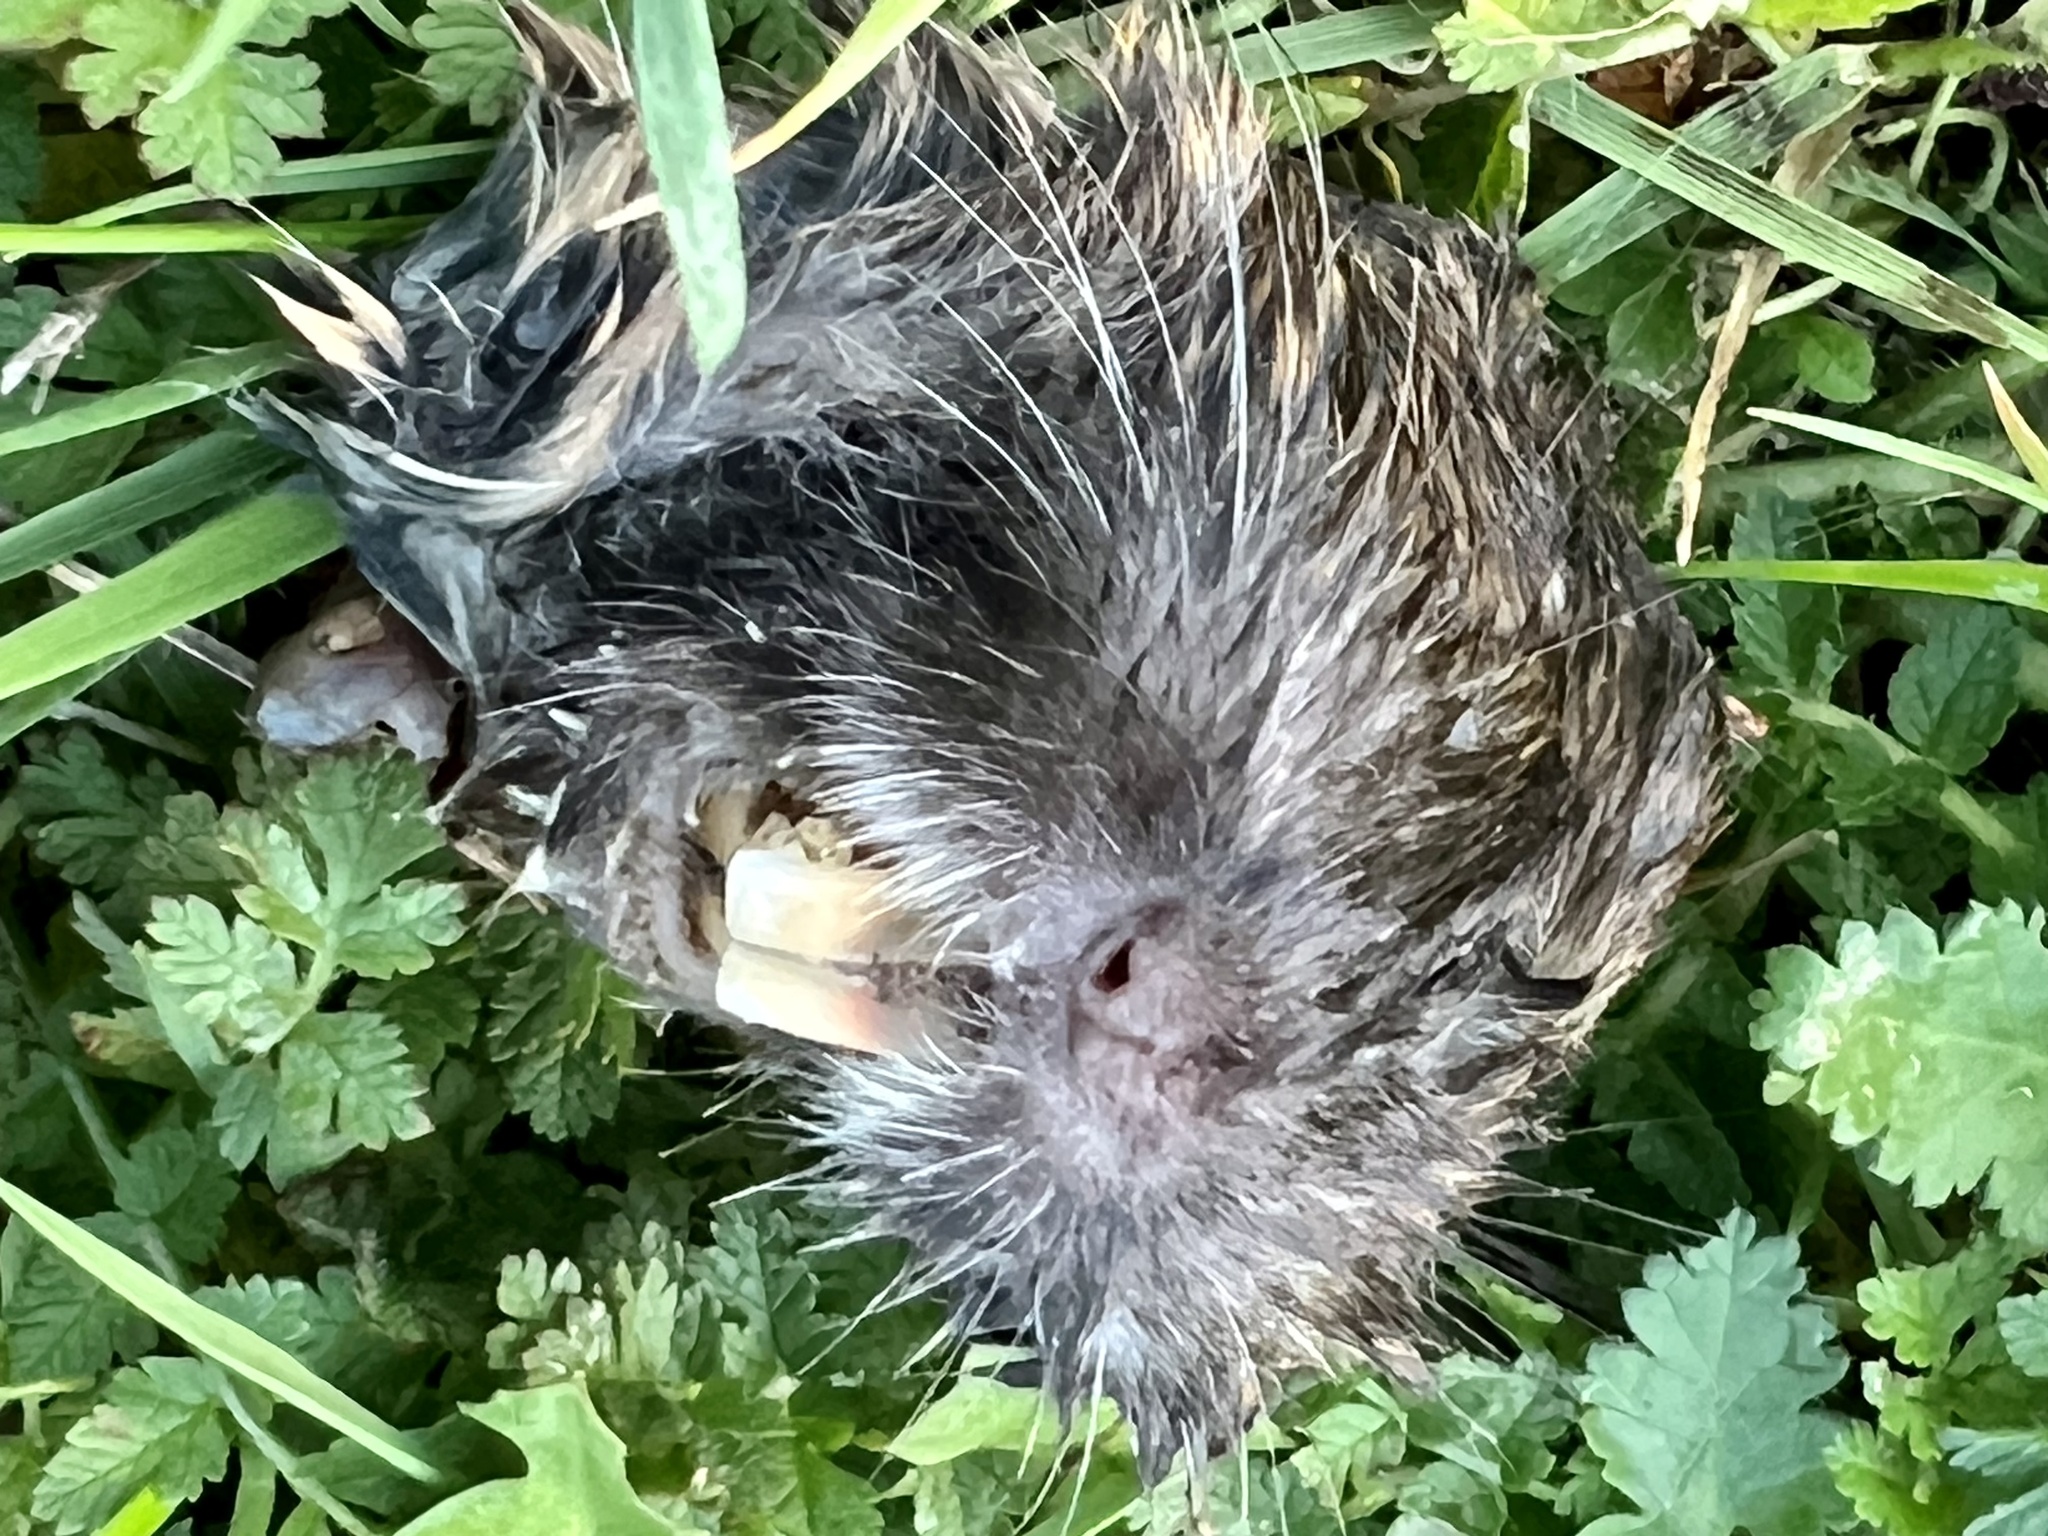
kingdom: Animalia
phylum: Chordata
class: Mammalia
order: Rodentia
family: Geomyidae
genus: Thomomys
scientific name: Thomomys bottae
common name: Botta's pocket gopher
